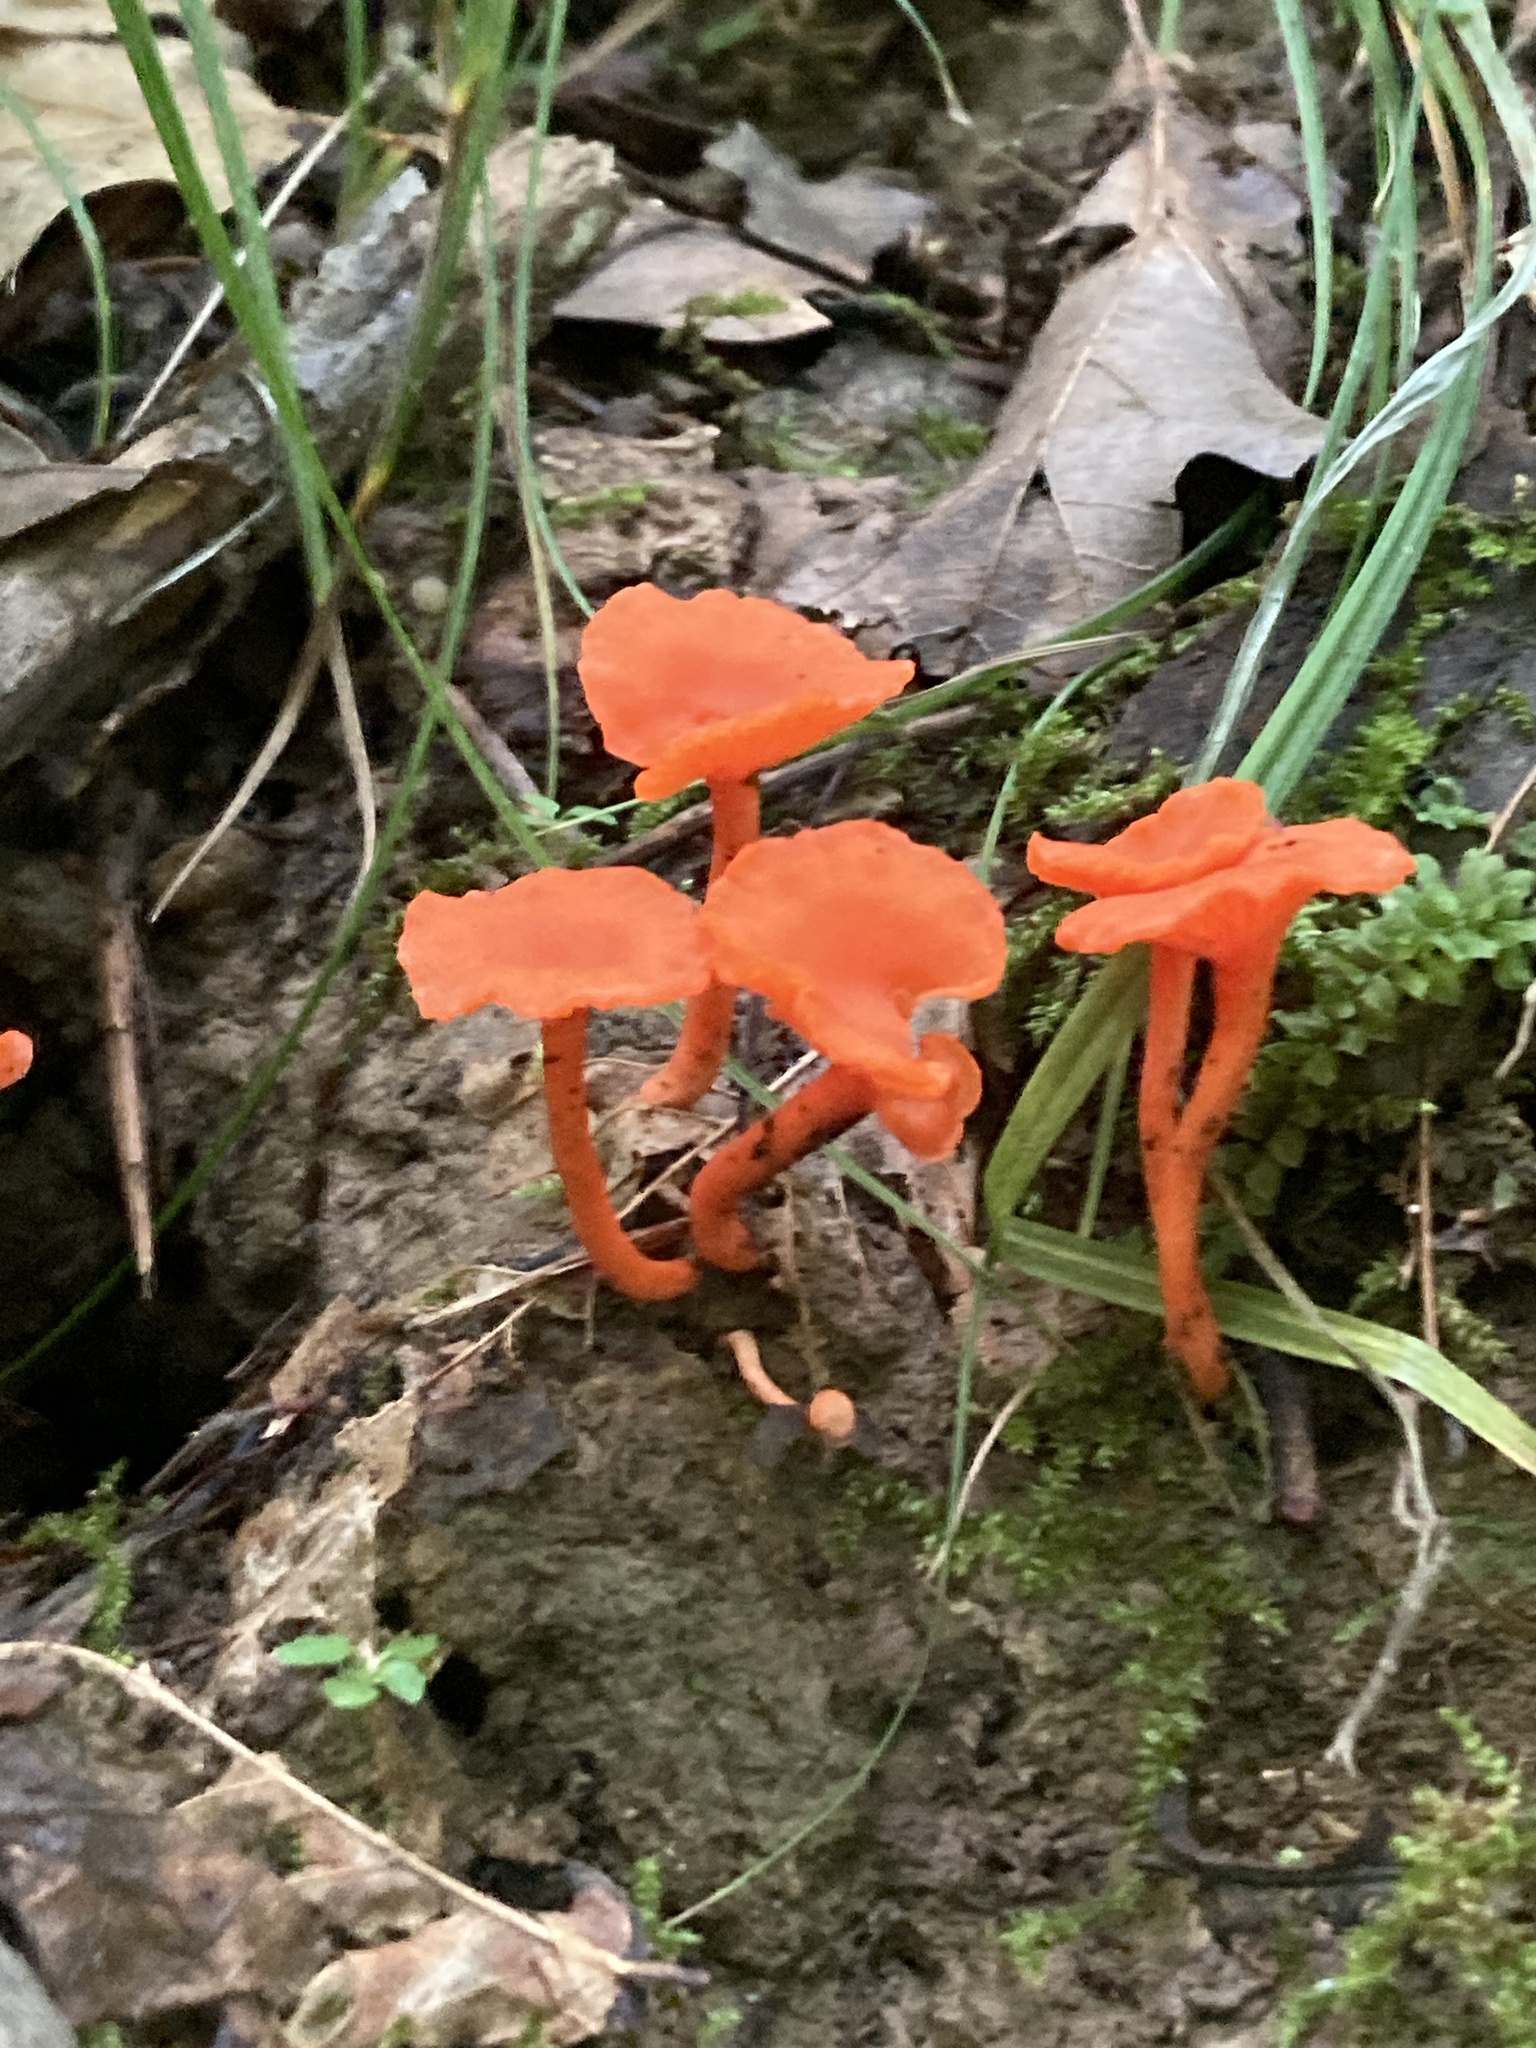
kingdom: Fungi
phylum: Basidiomycota
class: Agaricomycetes
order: Cantharellales
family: Hydnaceae
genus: Cantharellus
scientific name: Cantharellus cinnabarinus
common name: Cinnabar chanterelle
